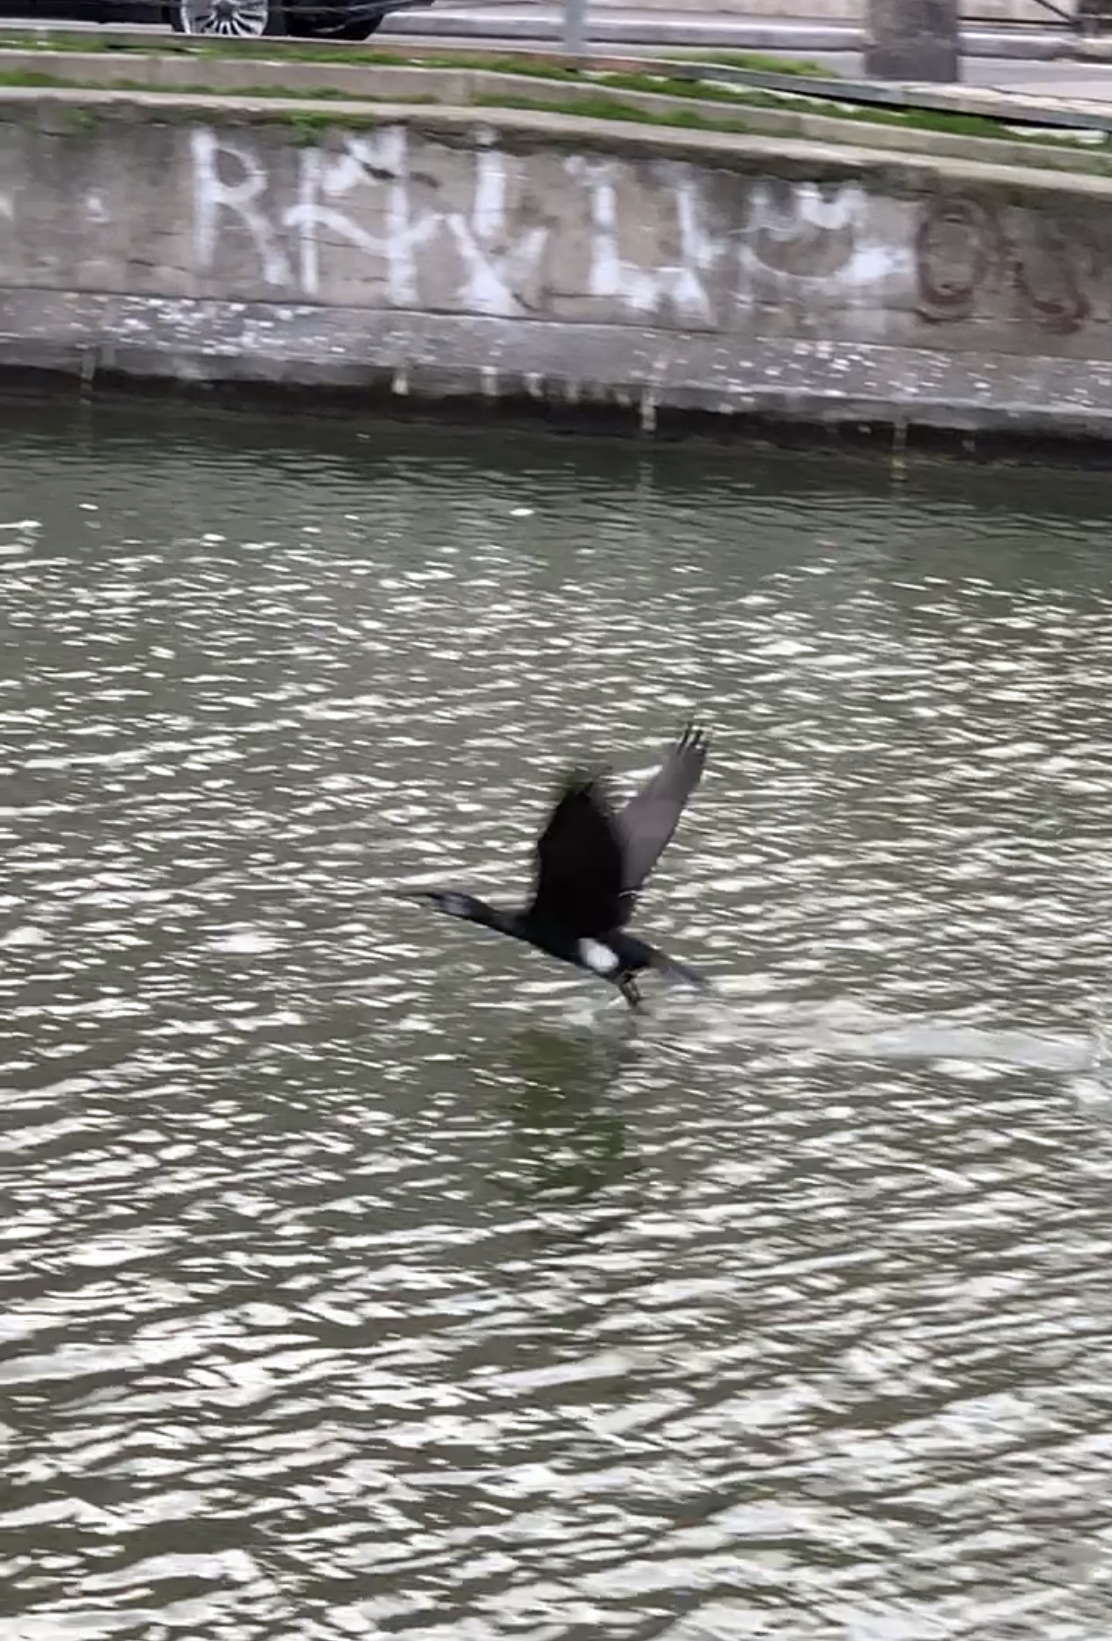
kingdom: Animalia
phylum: Chordata
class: Aves
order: Suliformes
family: Phalacrocoracidae
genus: Phalacrocorax
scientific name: Phalacrocorax carbo
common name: Great cormorant
